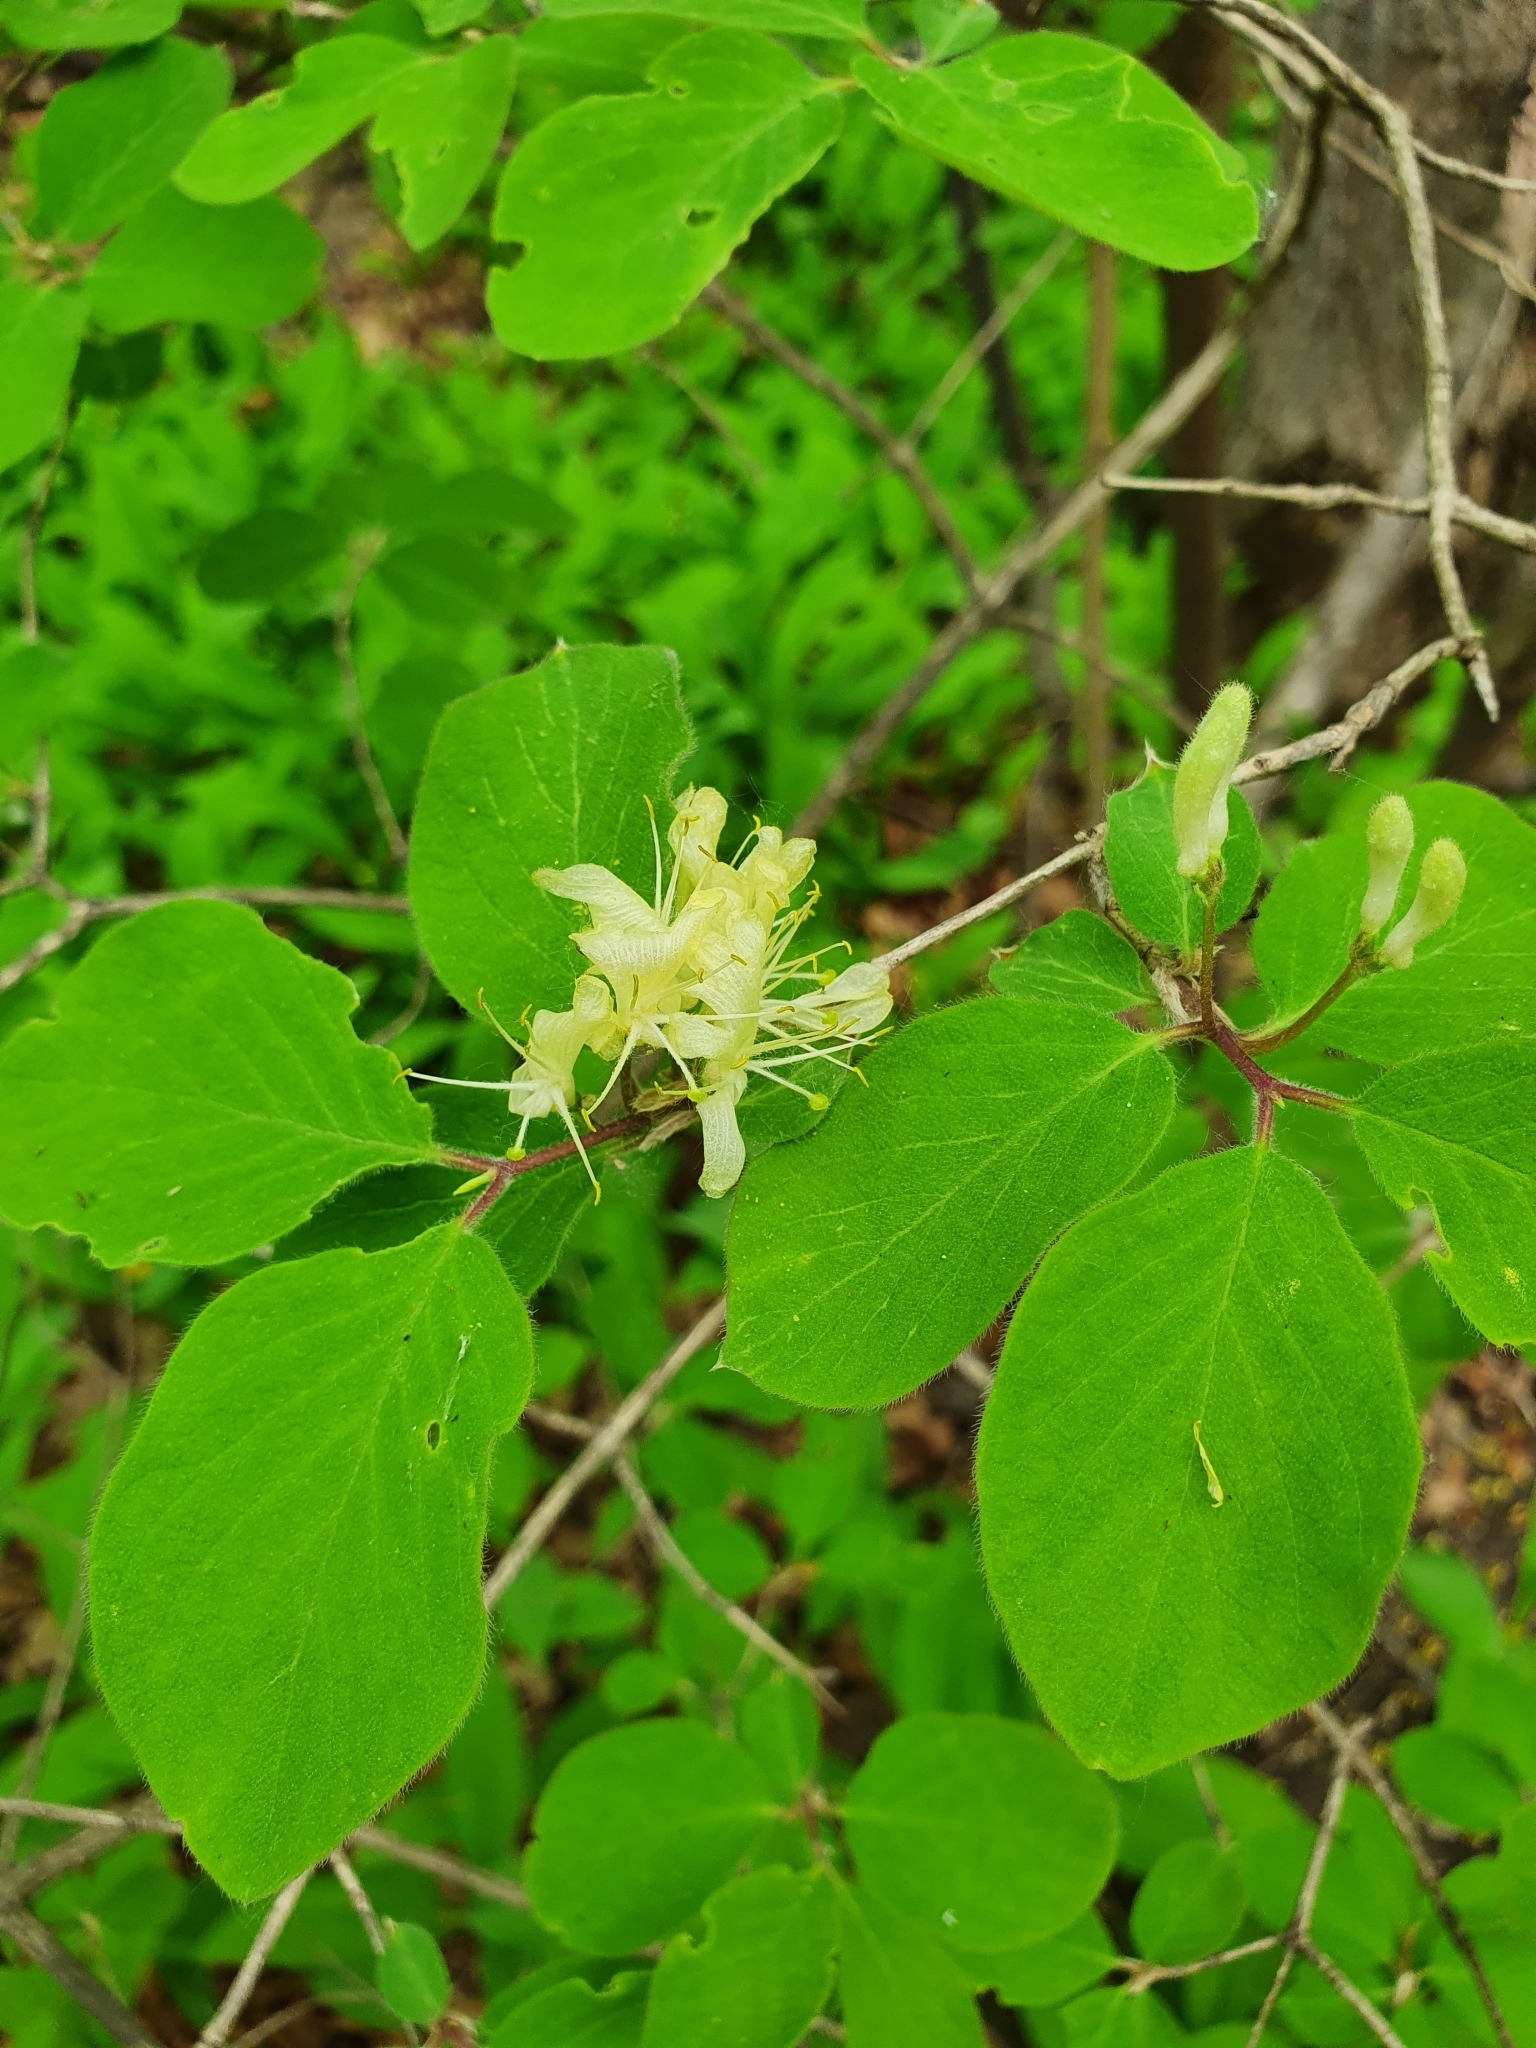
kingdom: Plantae
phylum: Tracheophyta
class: Magnoliopsida
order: Dipsacales
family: Caprifoliaceae
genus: Lonicera
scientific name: Lonicera xylosteum
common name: Fly honeysuckle
